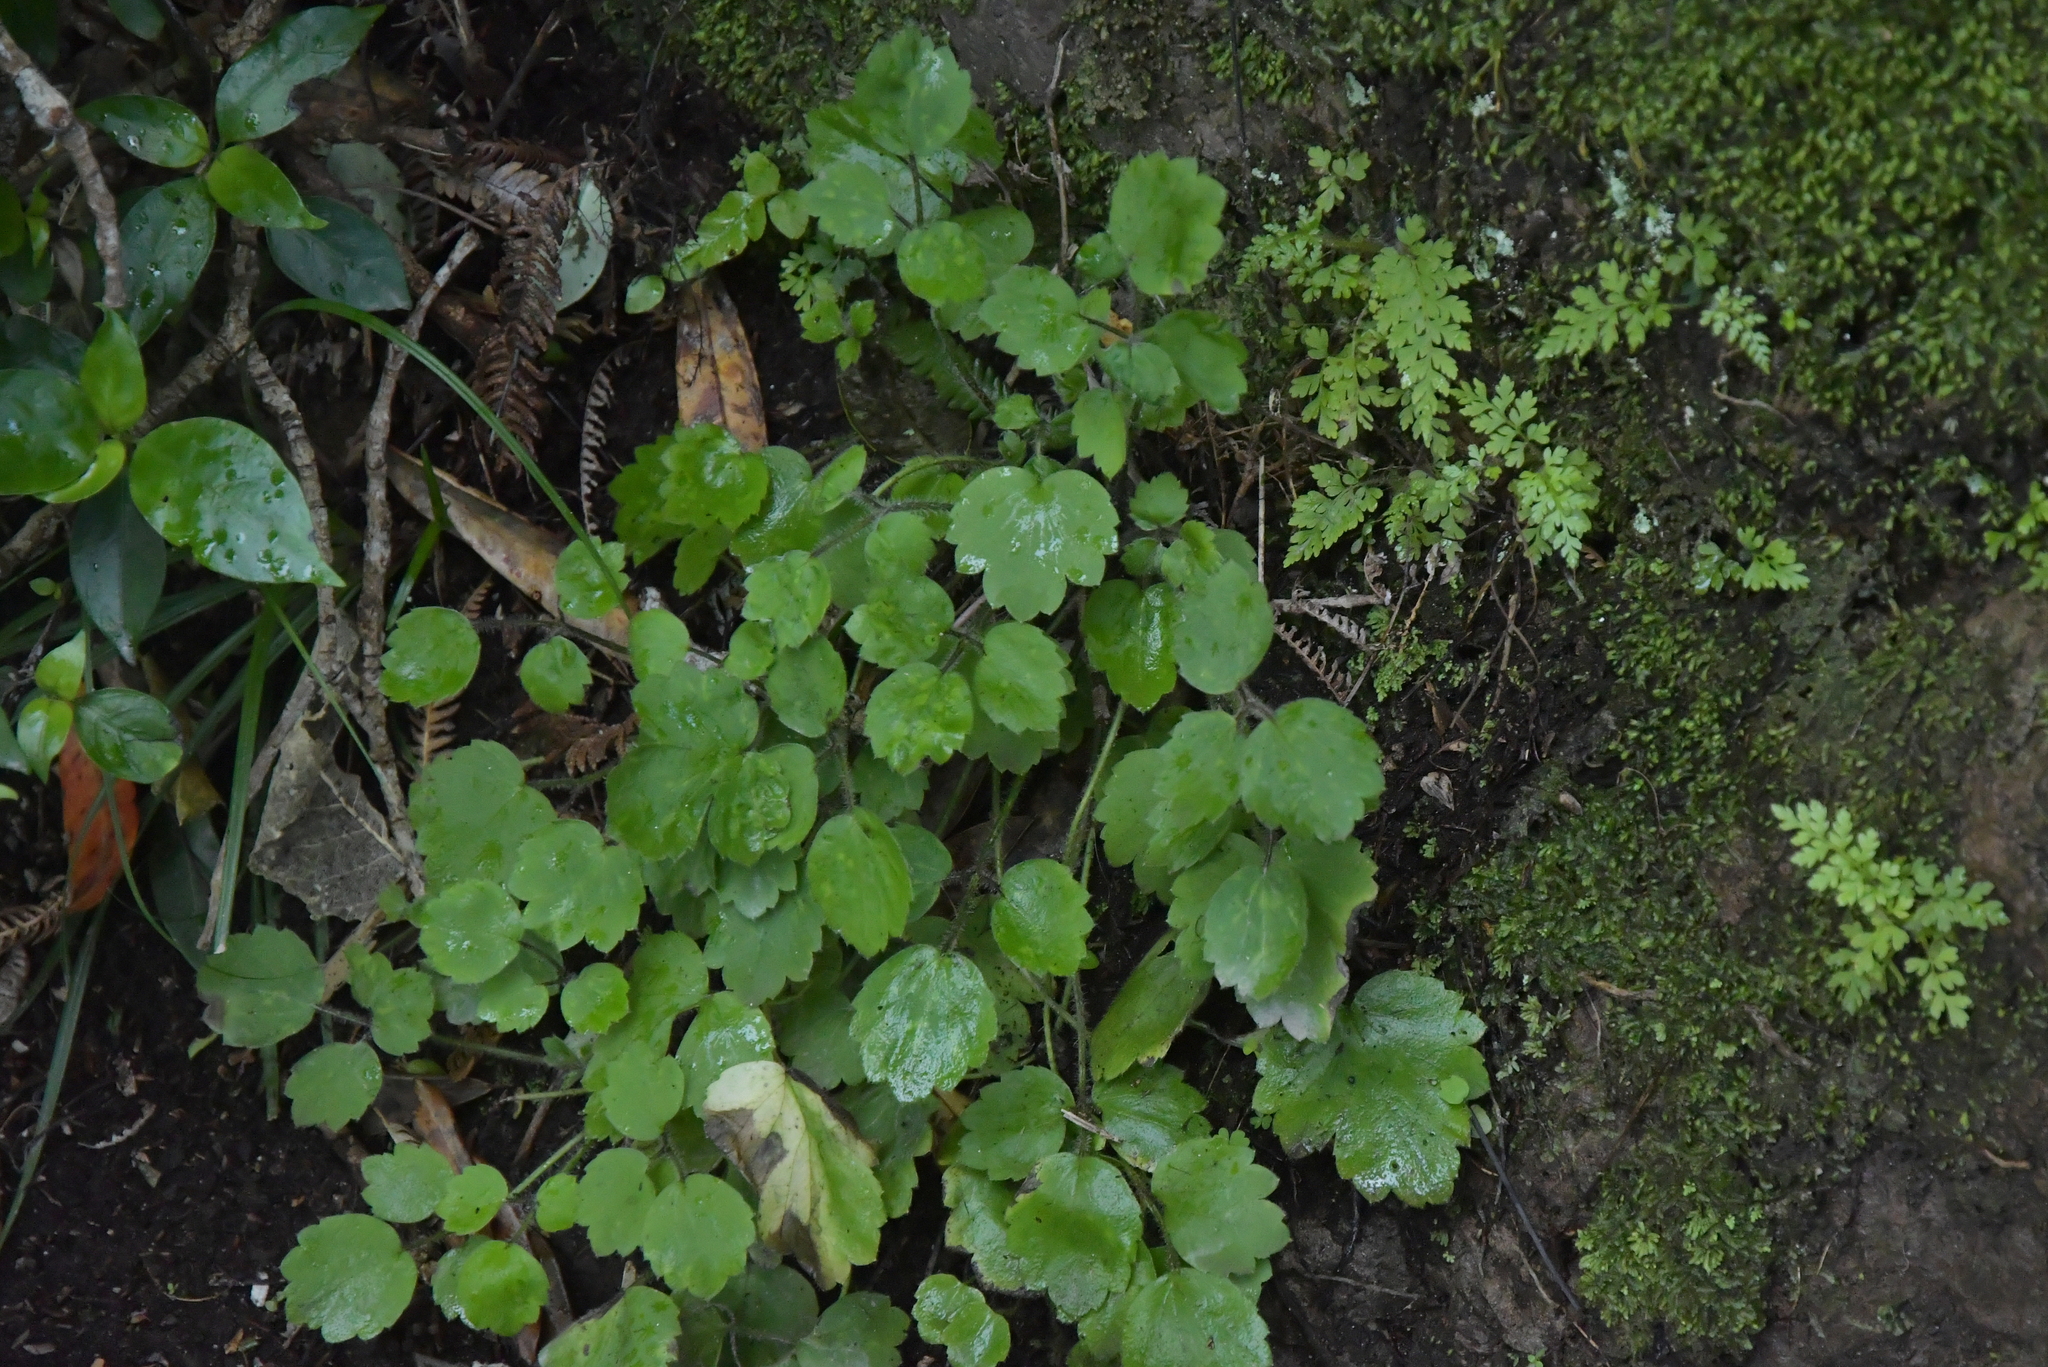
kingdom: Plantae
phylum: Tracheophyta
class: Magnoliopsida
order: Ranunculales
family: Ranunculaceae
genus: Ranunculus
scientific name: Ranunculus reflexus
